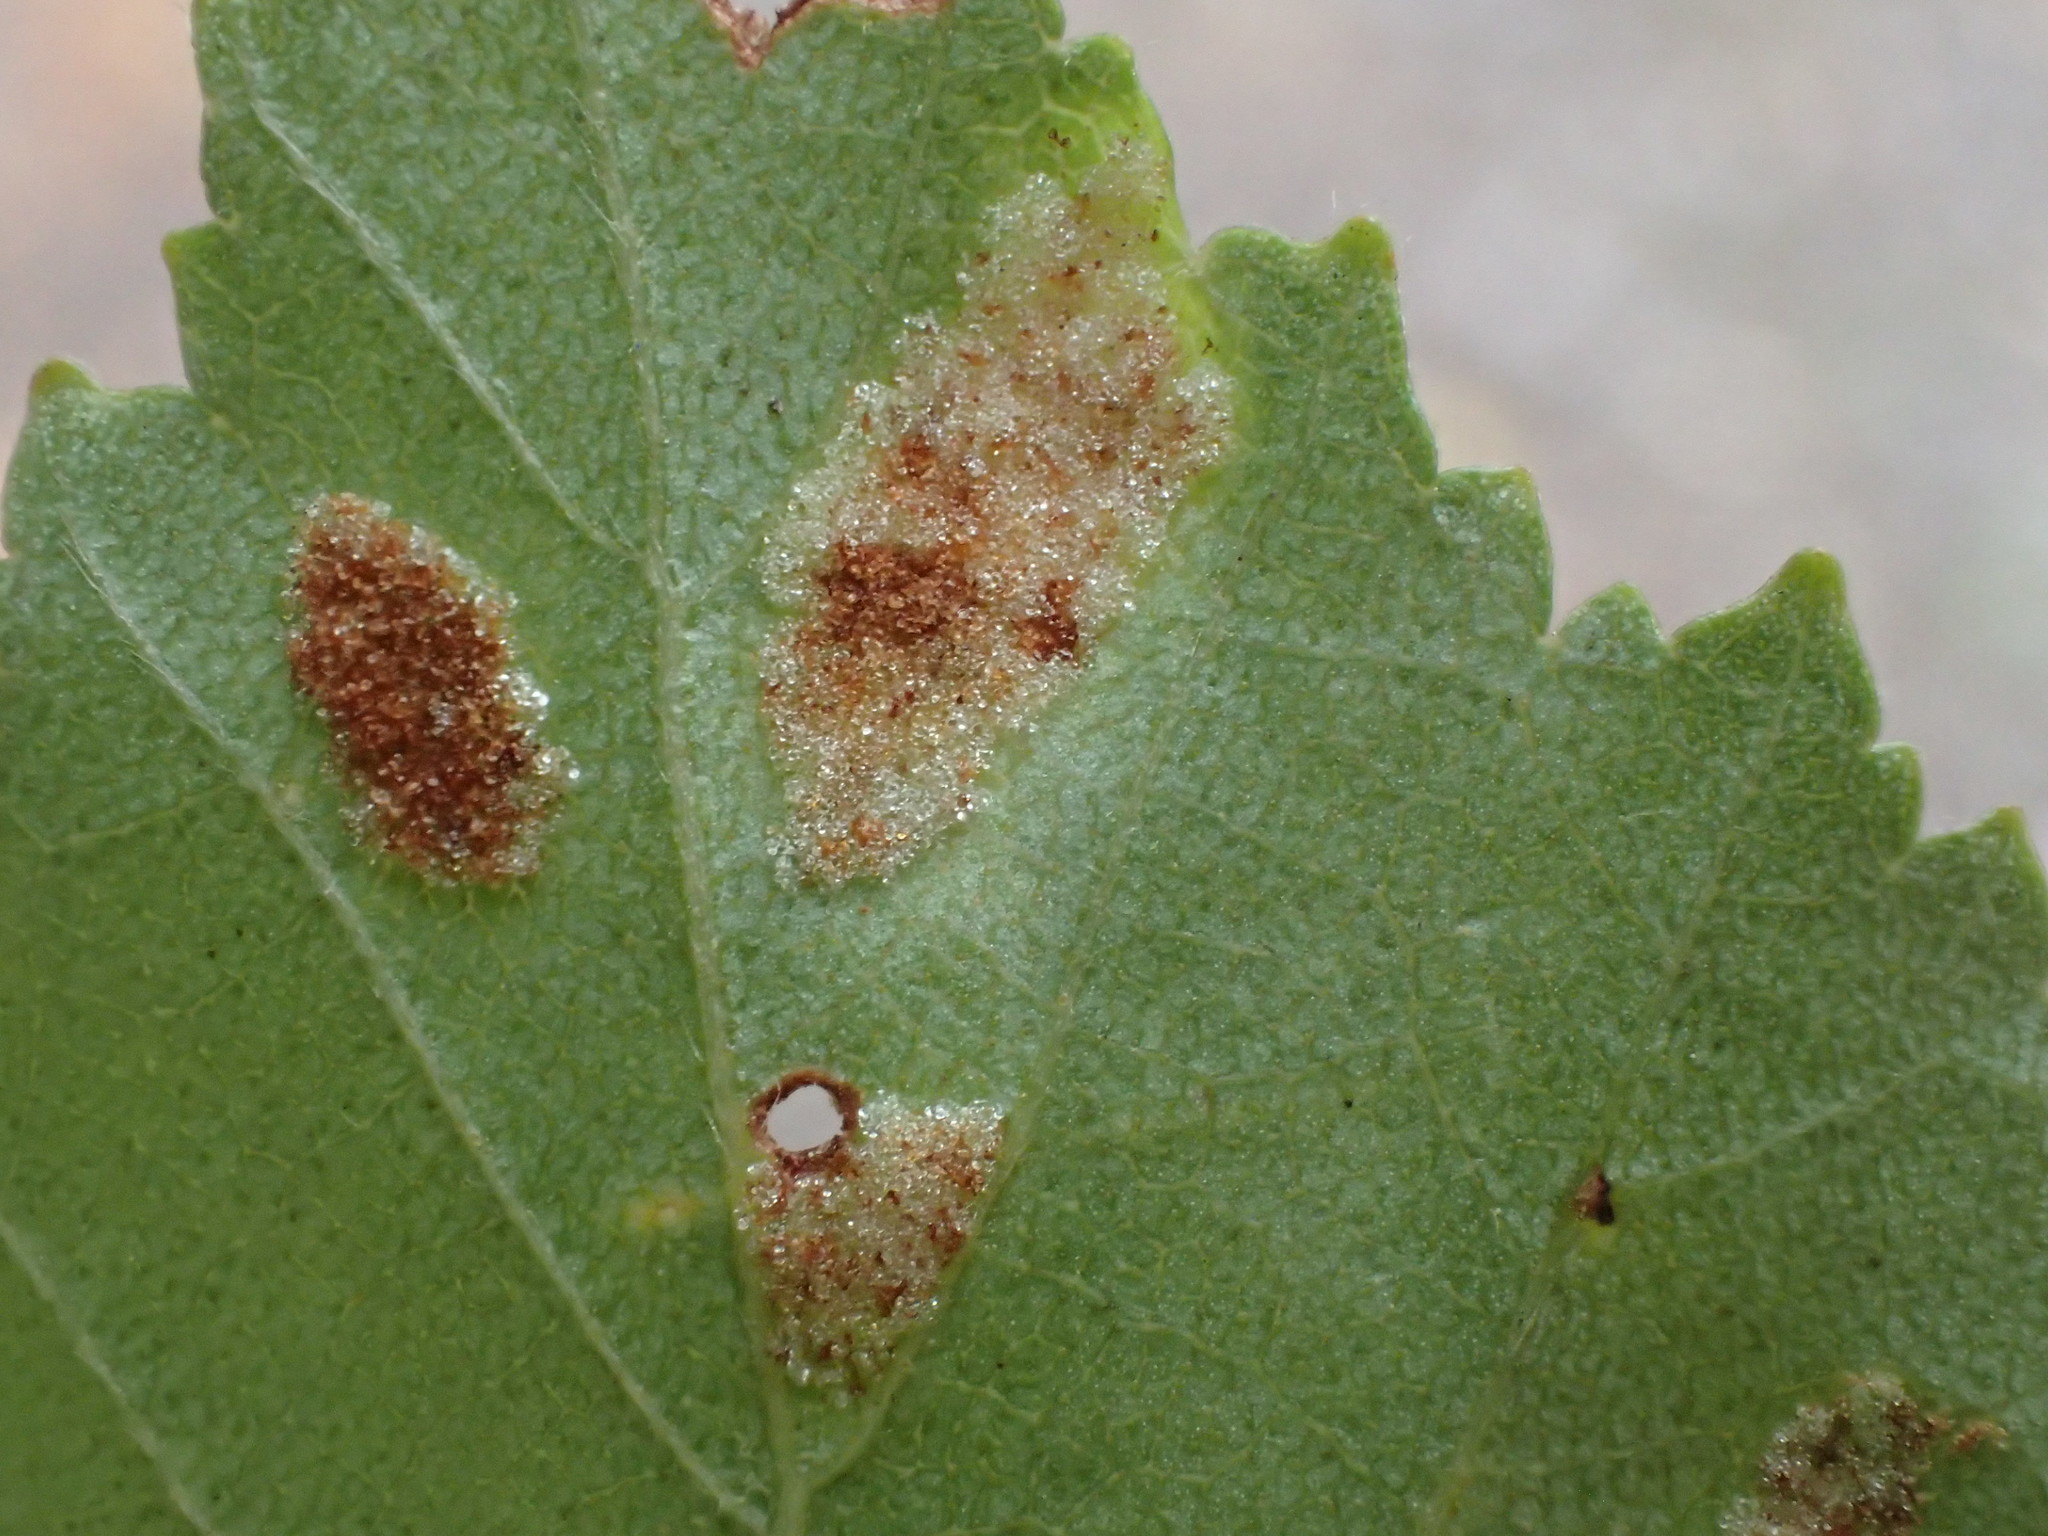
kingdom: Animalia
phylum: Arthropoda
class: Arachnida
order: Trombidiformes
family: Eriophyidae
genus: Acalitus
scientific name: Acalitus rudis
